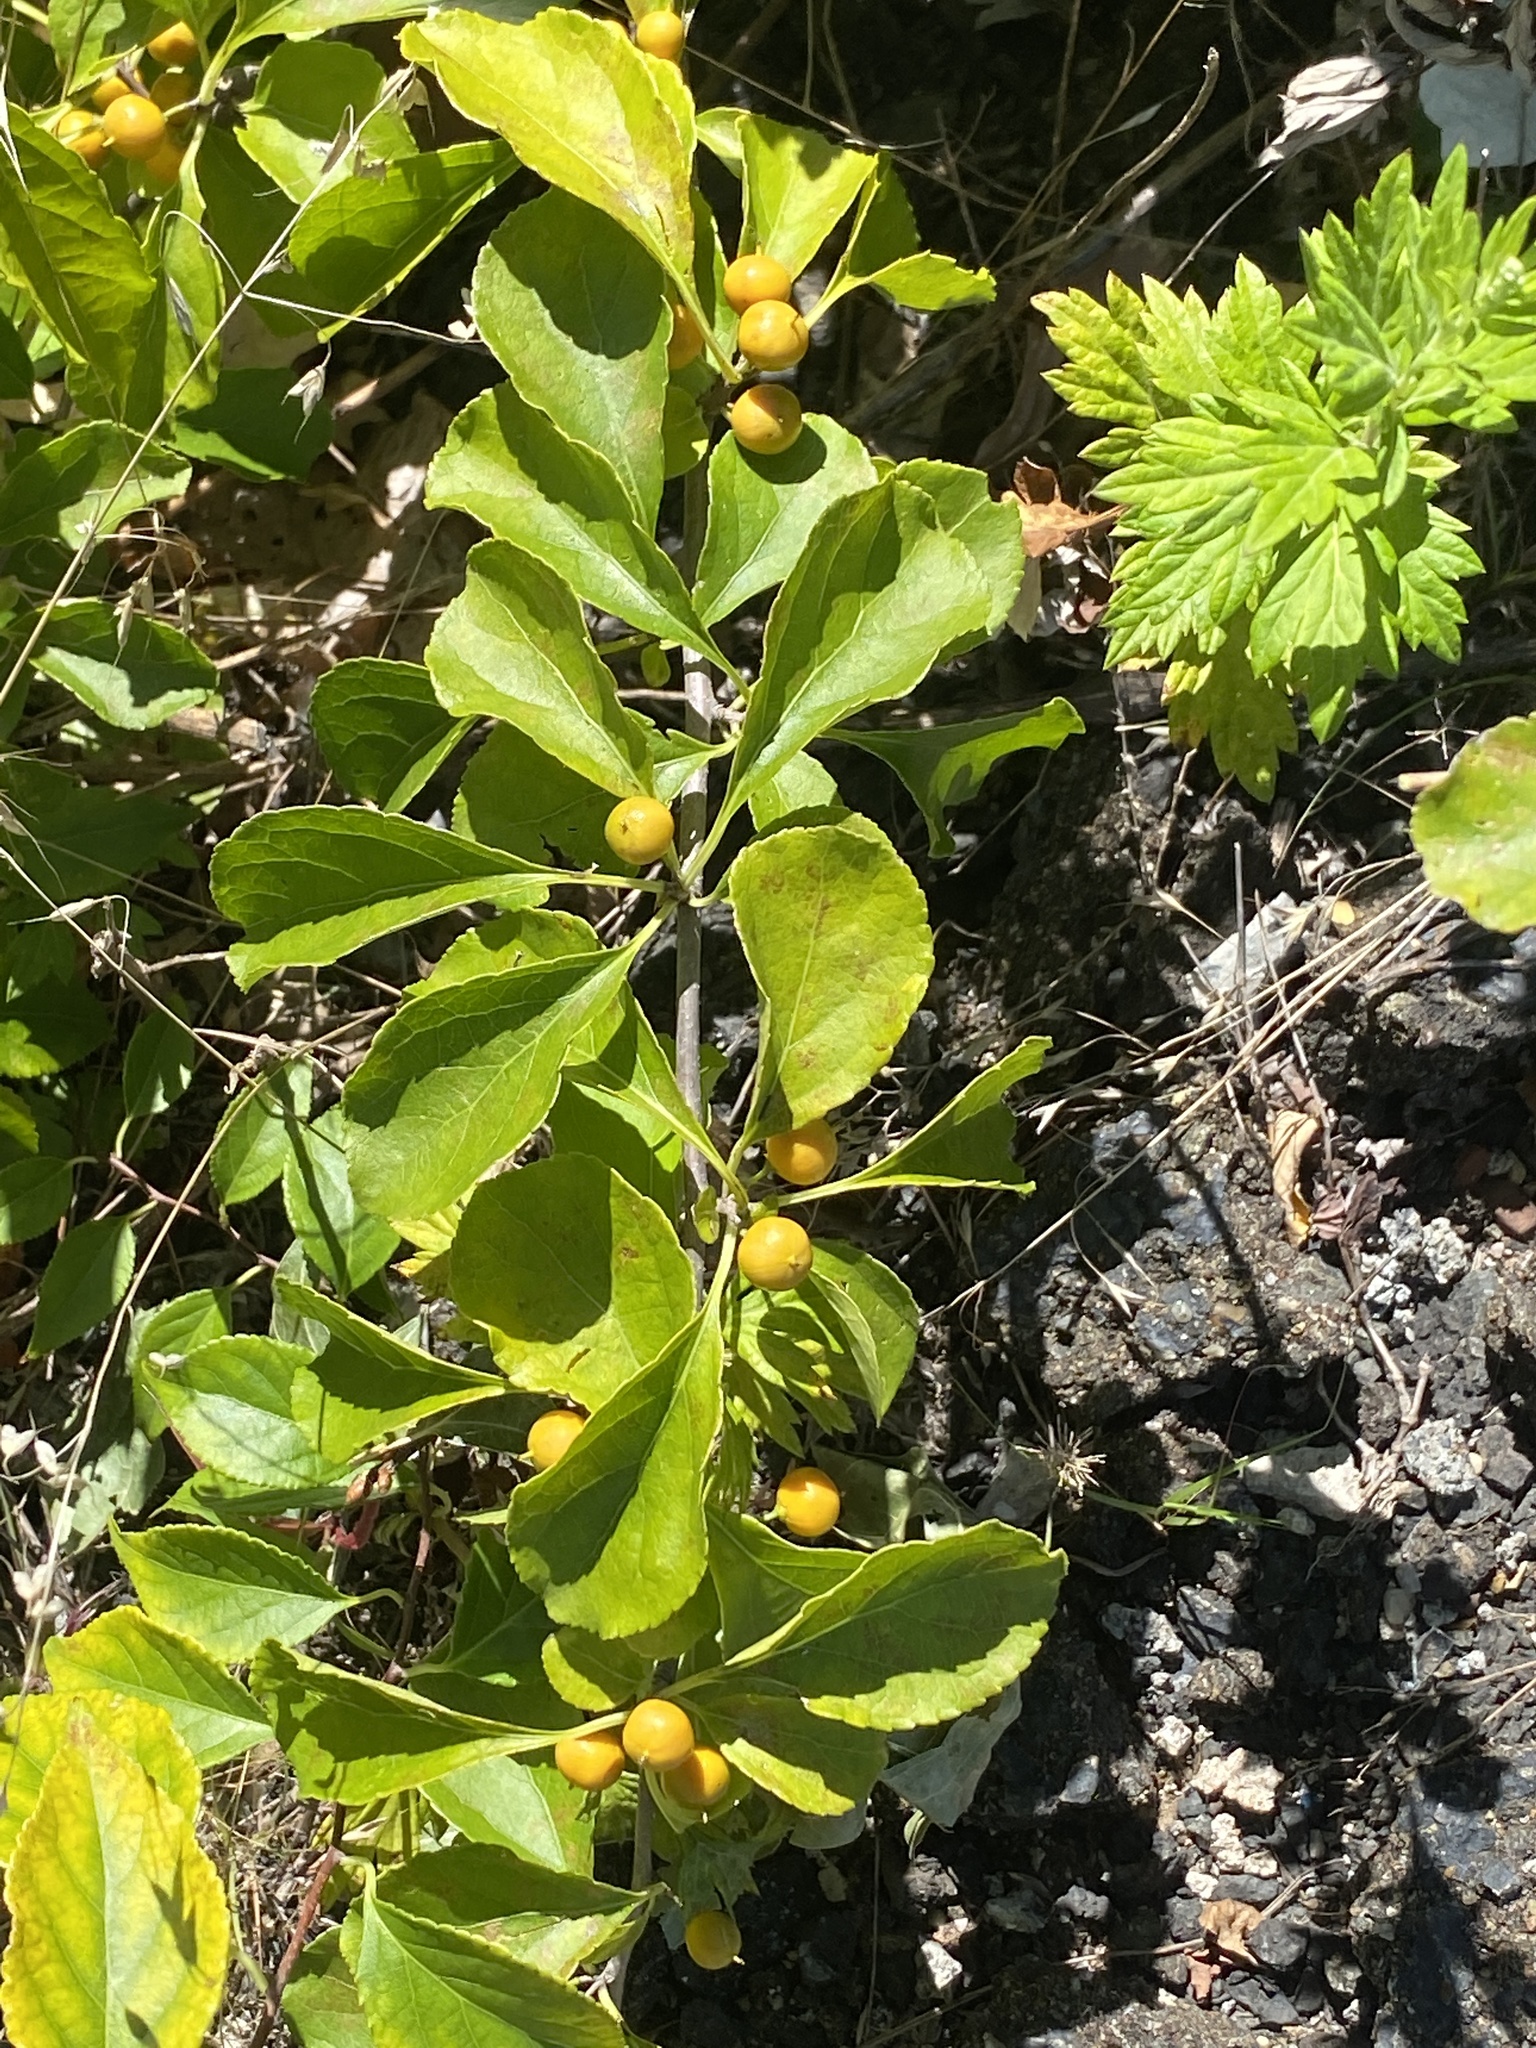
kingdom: Plantae
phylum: Tracheophyta
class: Magnoliopsida
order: Celastrales
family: Celastraceae
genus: Celastrus
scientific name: Celastrus orbiculatus
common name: Oriental bittersweet
